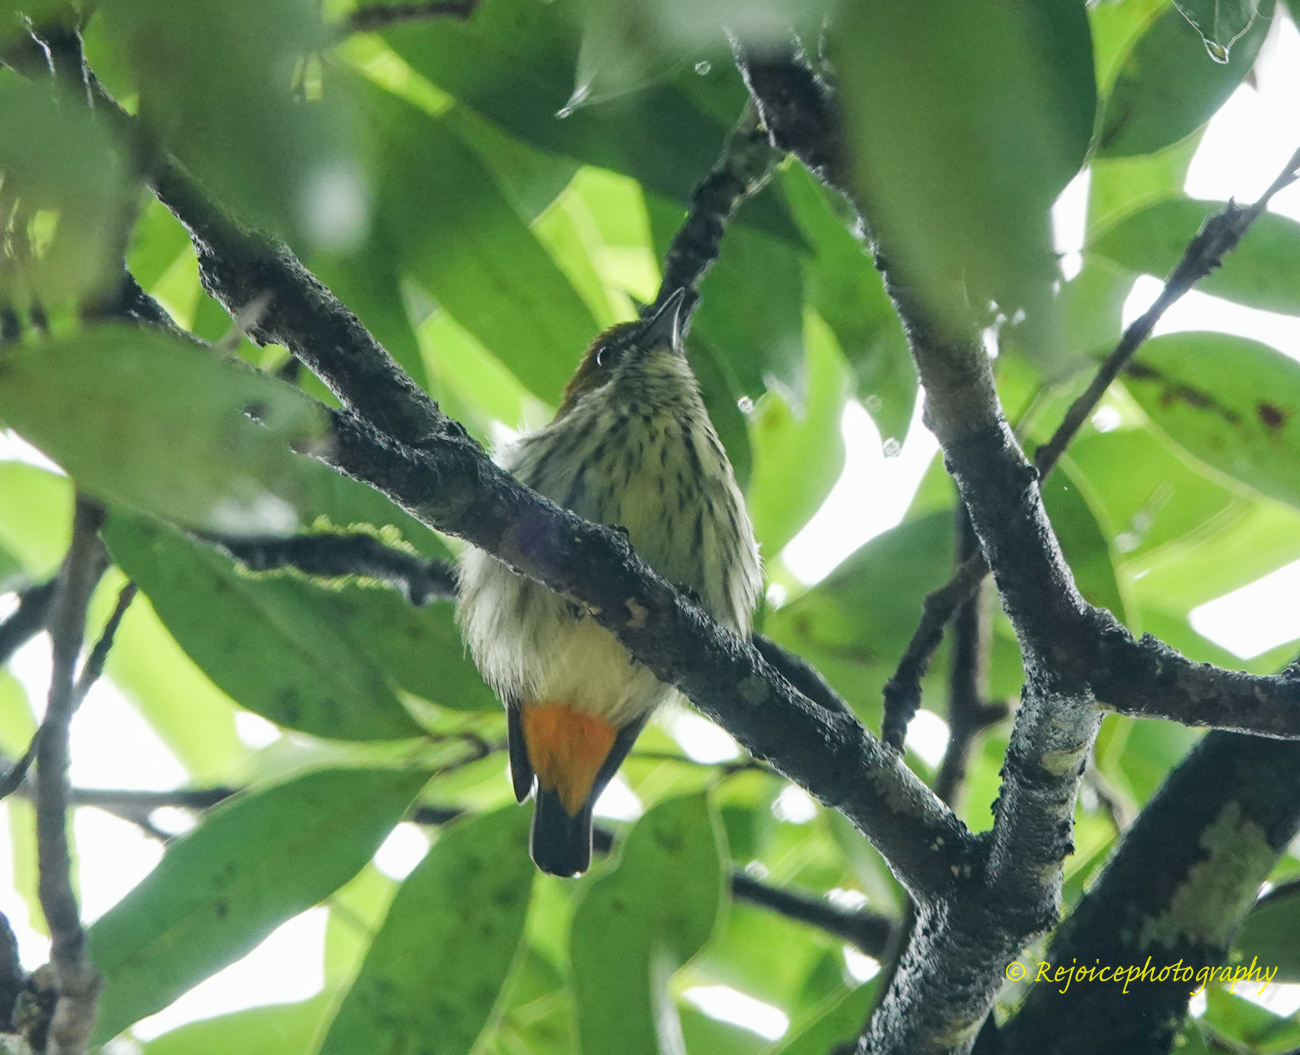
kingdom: Animalia
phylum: Chordata
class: Aves
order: Passeriformes
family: Dicaeidae
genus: Dicaeum
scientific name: Dicaeum chrysorrheum
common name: Yellow-vented flowerpecker
